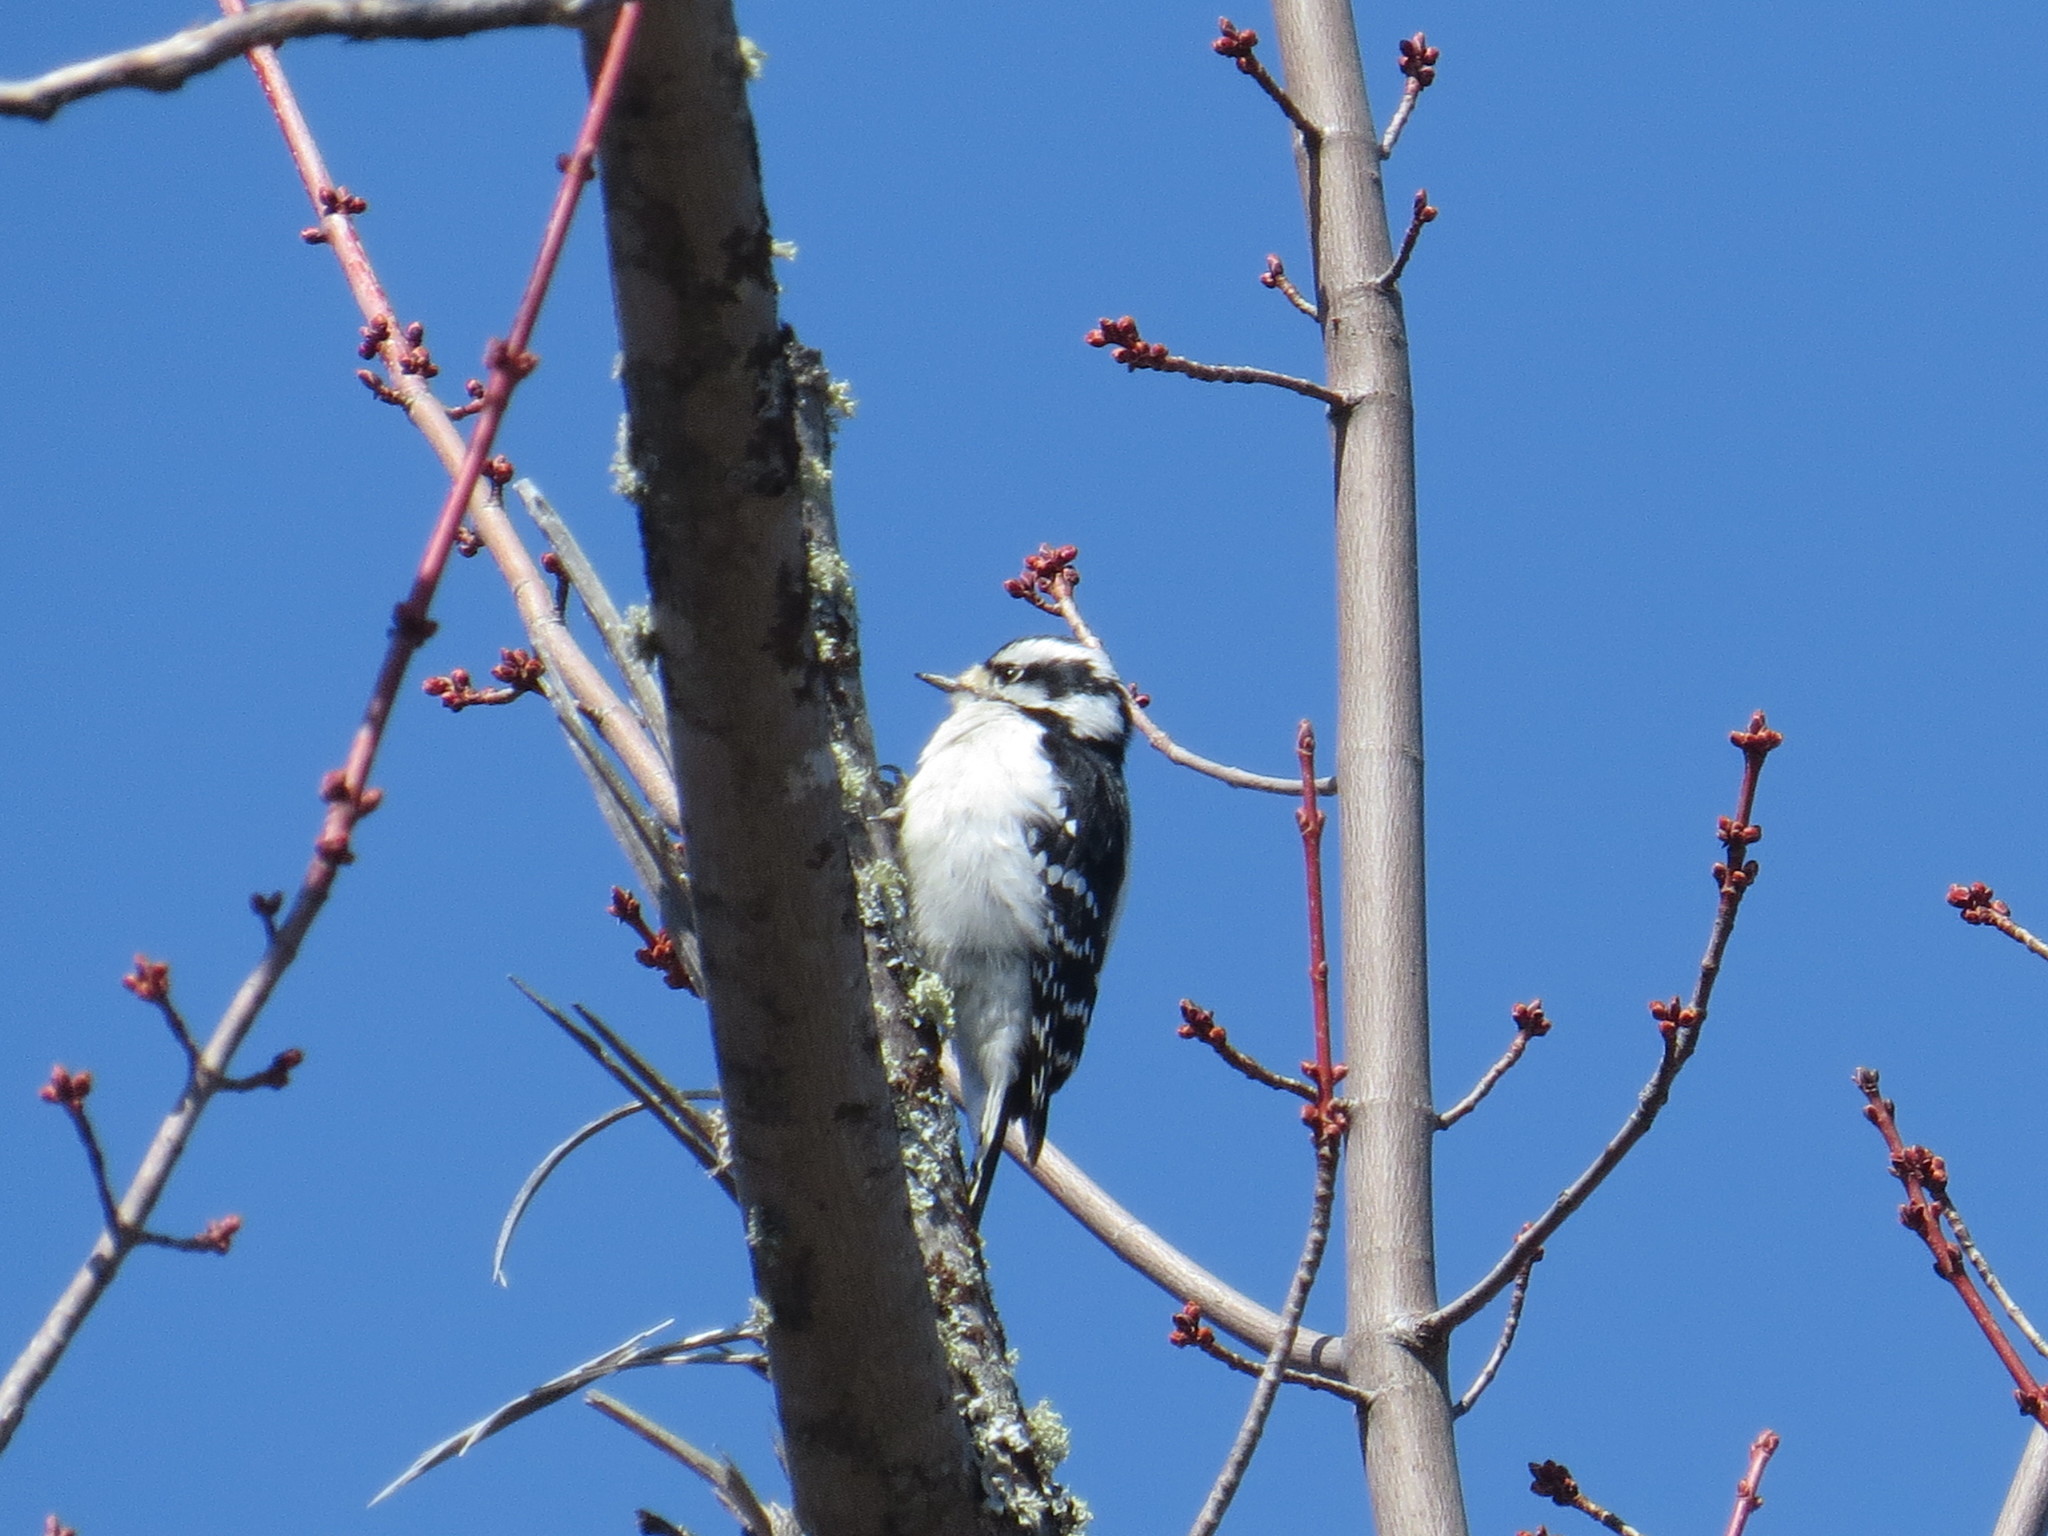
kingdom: Animalia
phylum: Chordata
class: Aves
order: Piciformes
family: Picidae
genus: Dryobates
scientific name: Dryobates pubescens
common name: Downy woodpecker
